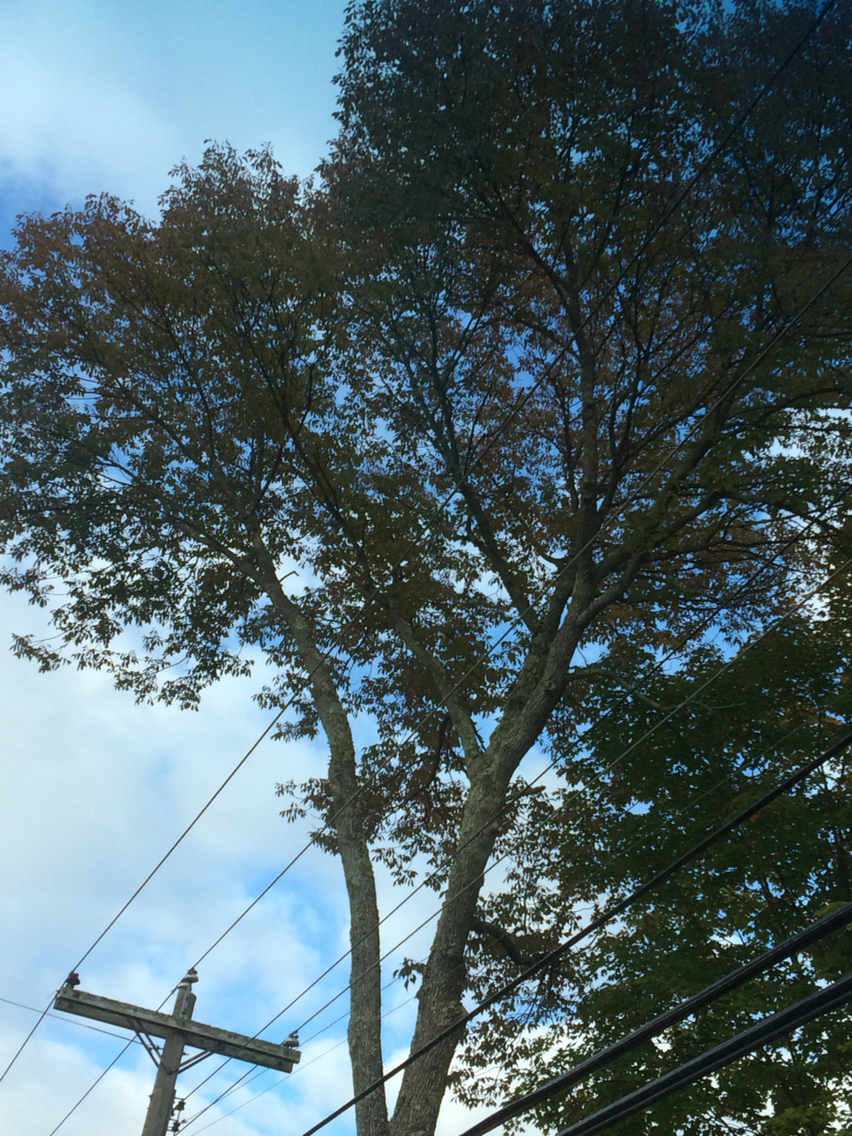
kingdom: Plantae
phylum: Tracheophyta
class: Magnoliopsida
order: Lamiales
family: Oleaceae
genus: Fraxinus
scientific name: Fraxinus americana
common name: White ash
